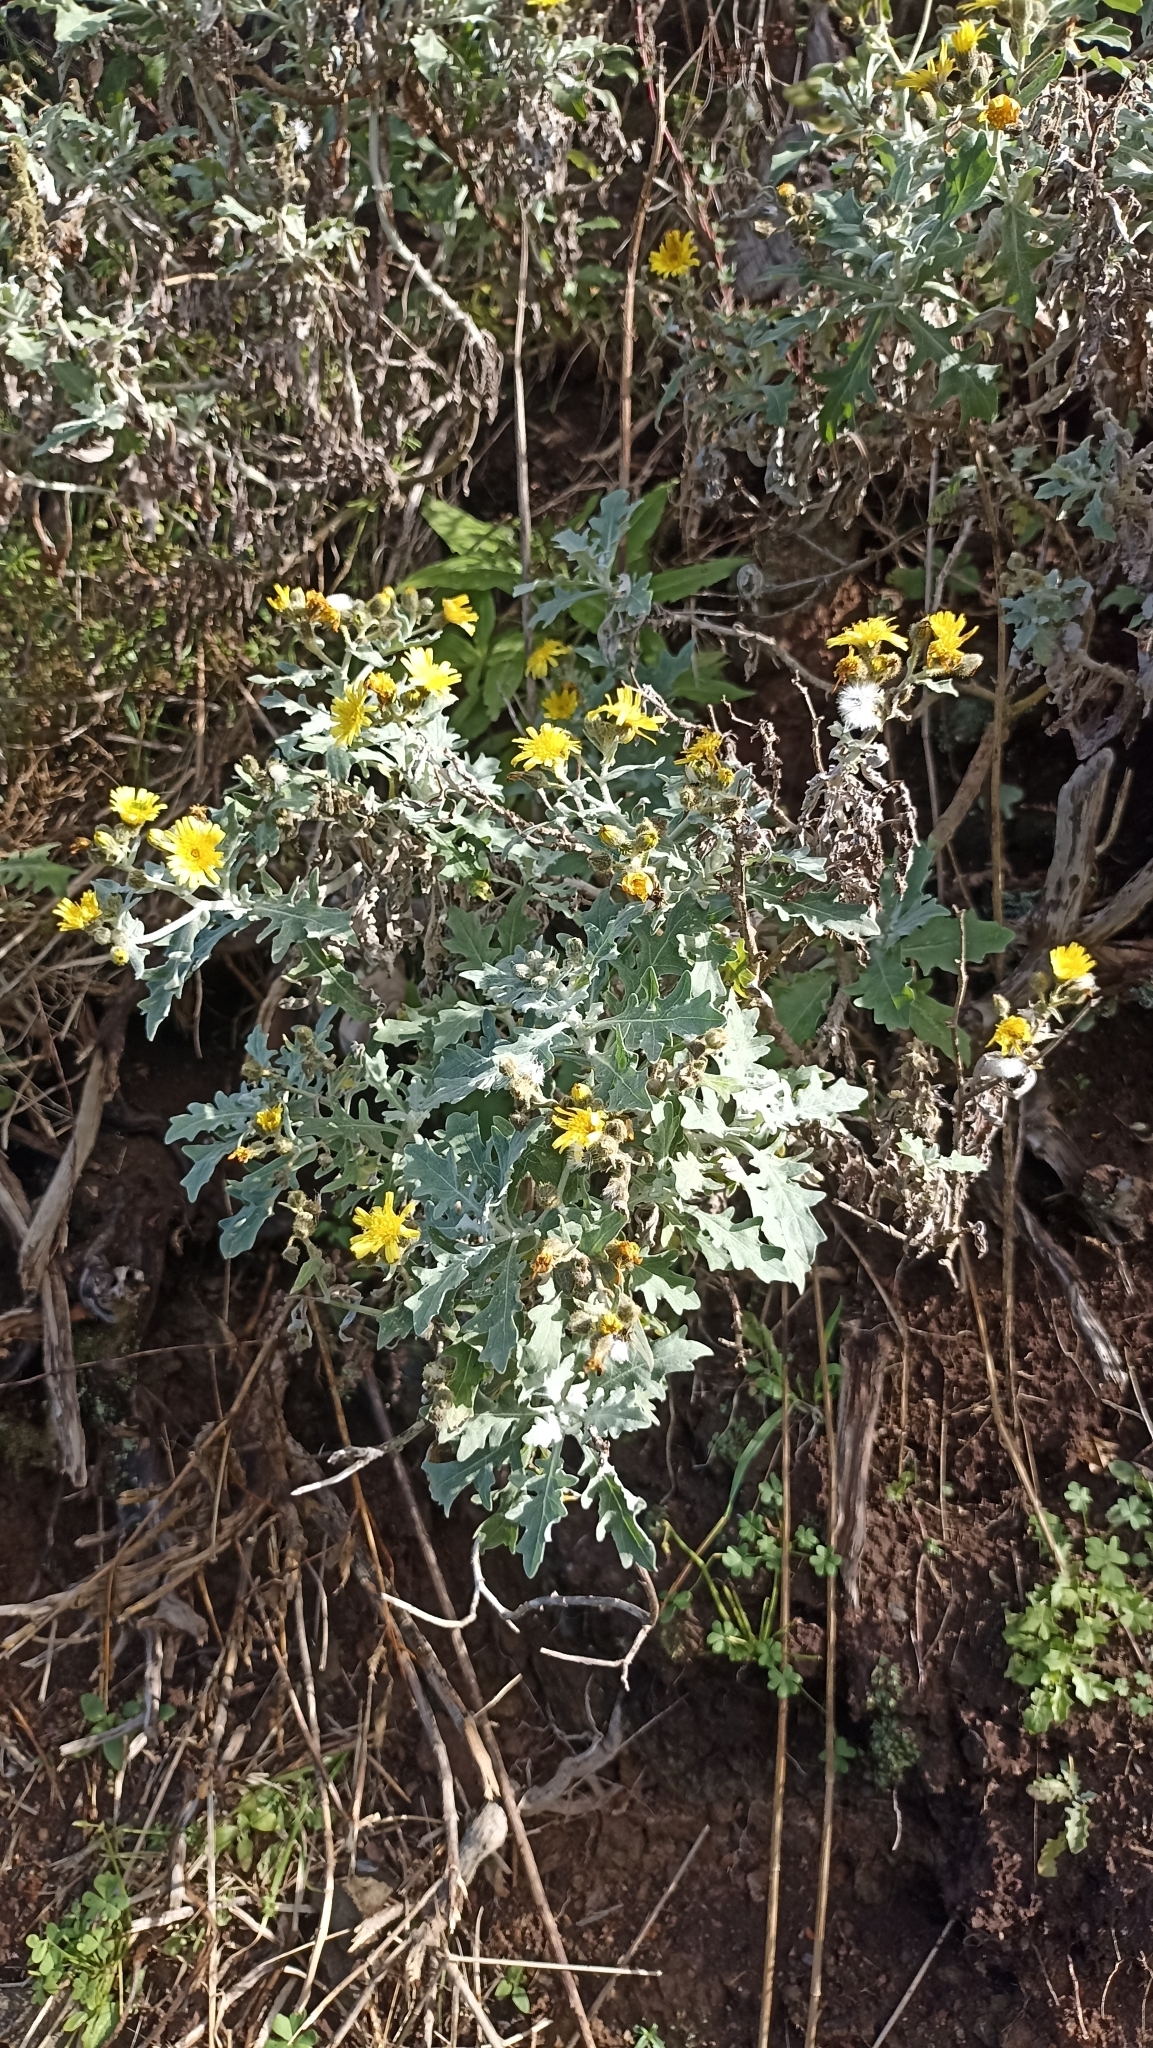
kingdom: Plantae
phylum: Tracheophyta
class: Magnoliopsida
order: Asterales
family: Asteraceae
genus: Andryala
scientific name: Andryala pinnatifida
